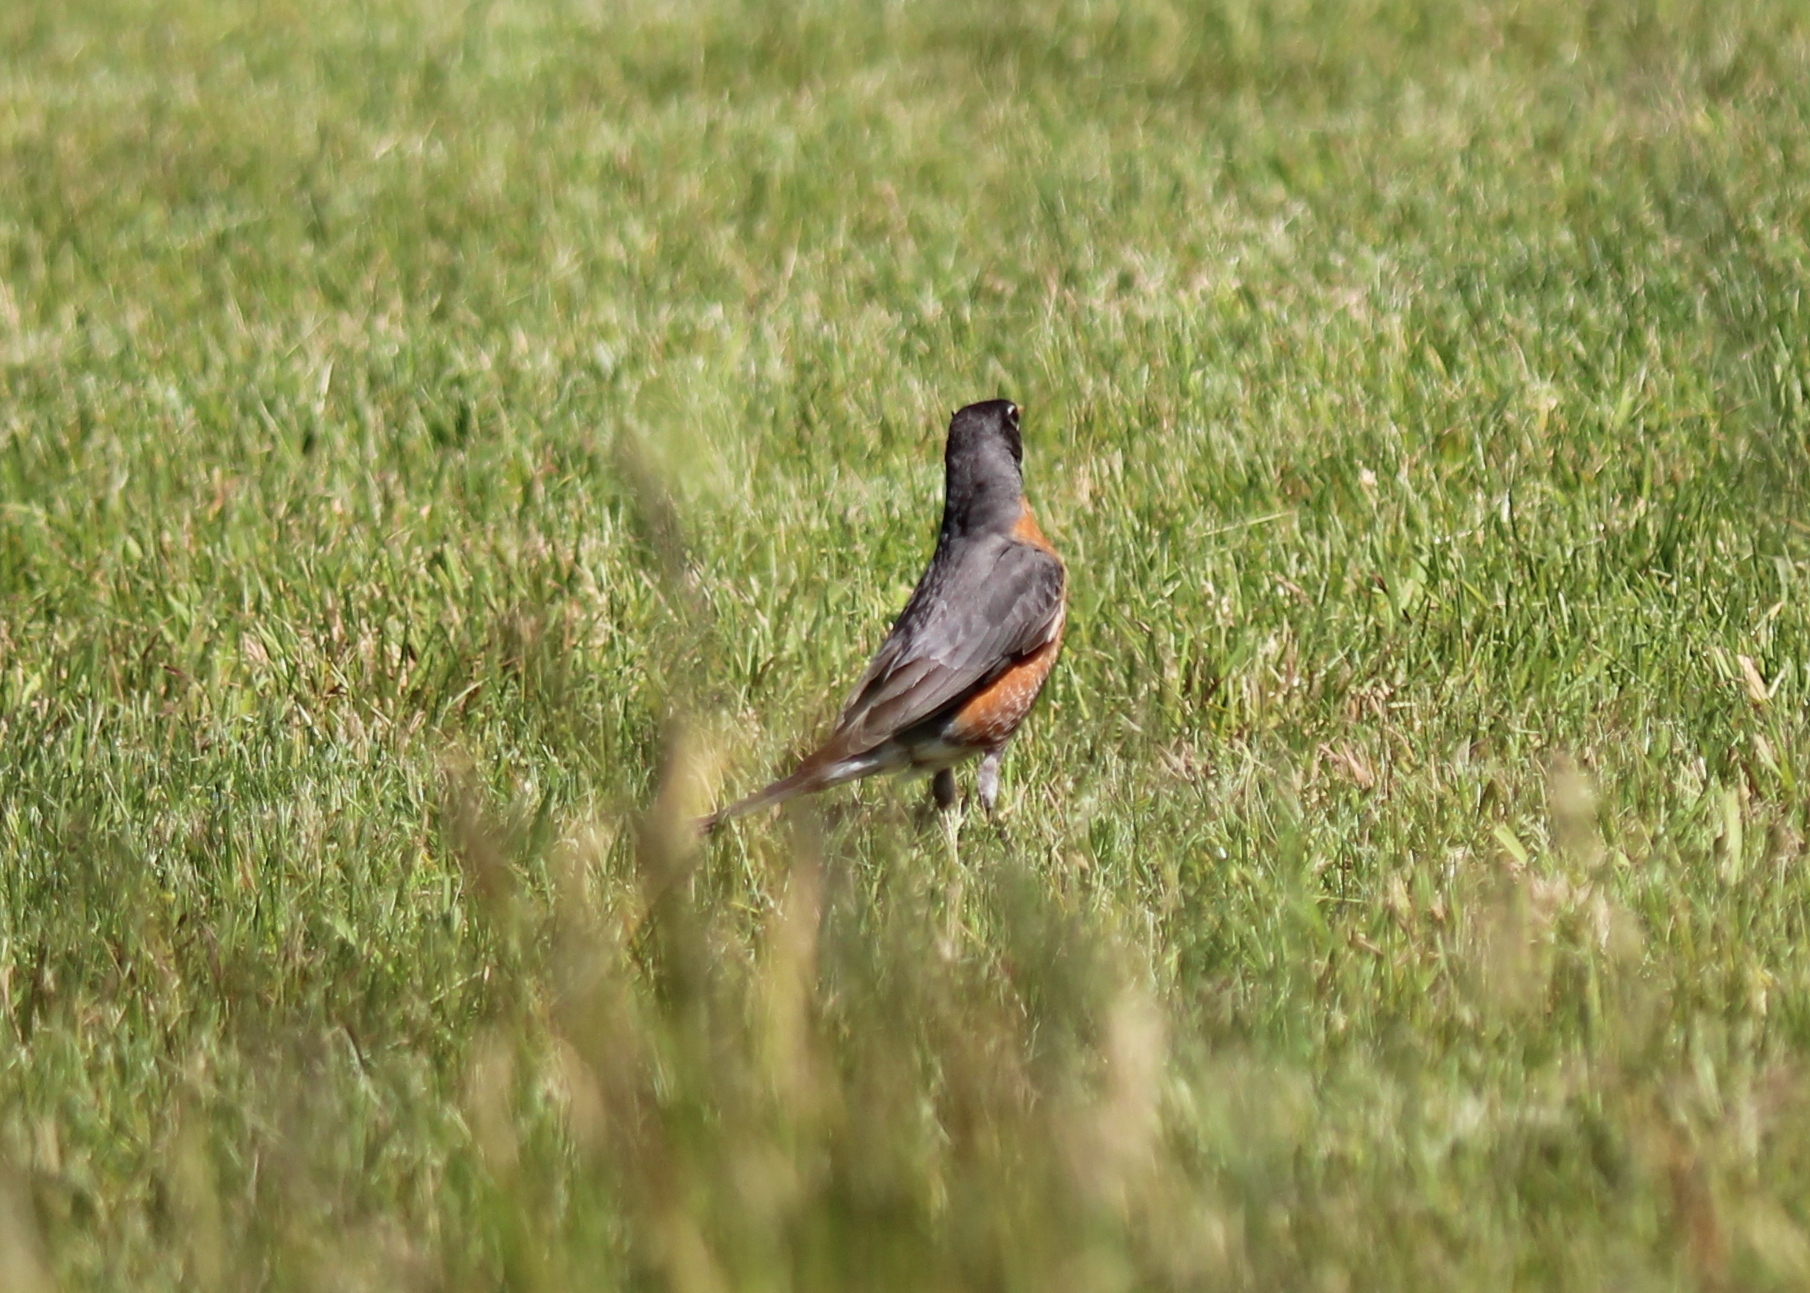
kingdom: Animalia
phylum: Chordata
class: Aves
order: Passeriformes
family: Turdidae
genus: Turdus
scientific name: Turdus migratorius
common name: American robin
